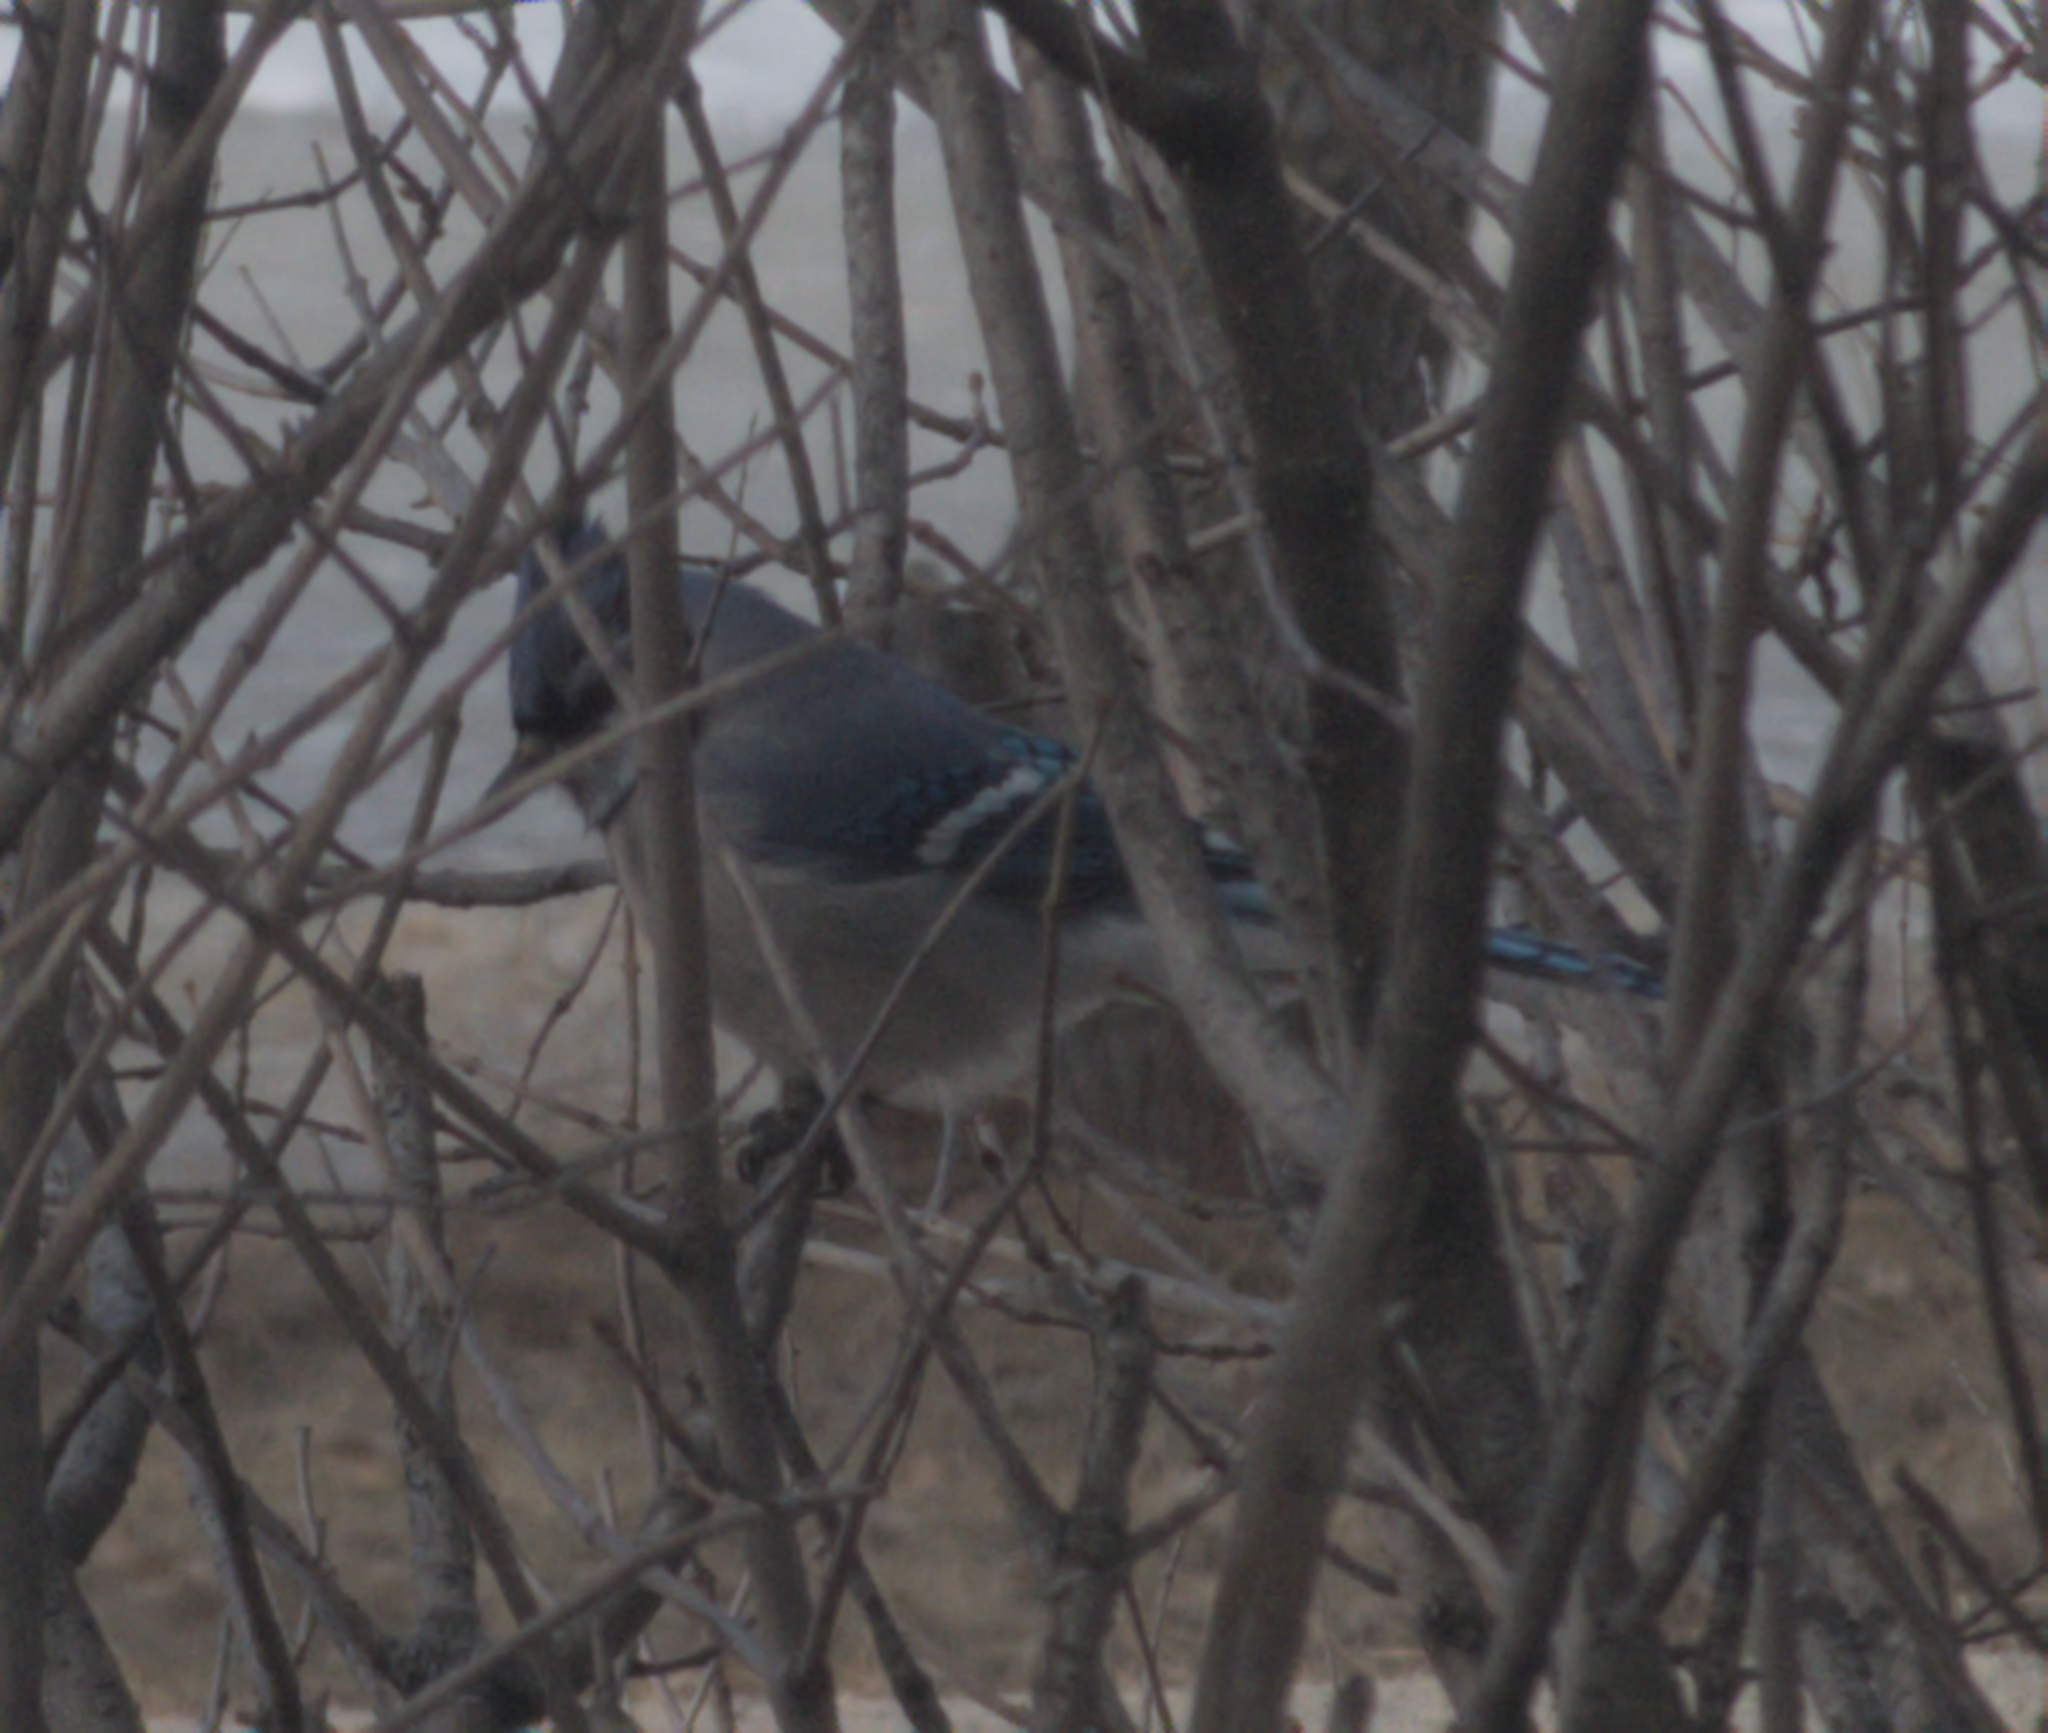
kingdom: Animalia
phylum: Chordata
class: Aves
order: Passeriformes
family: Corvidae
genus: Cyanocitta
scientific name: Cyanocitta cristata
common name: Blue jay
